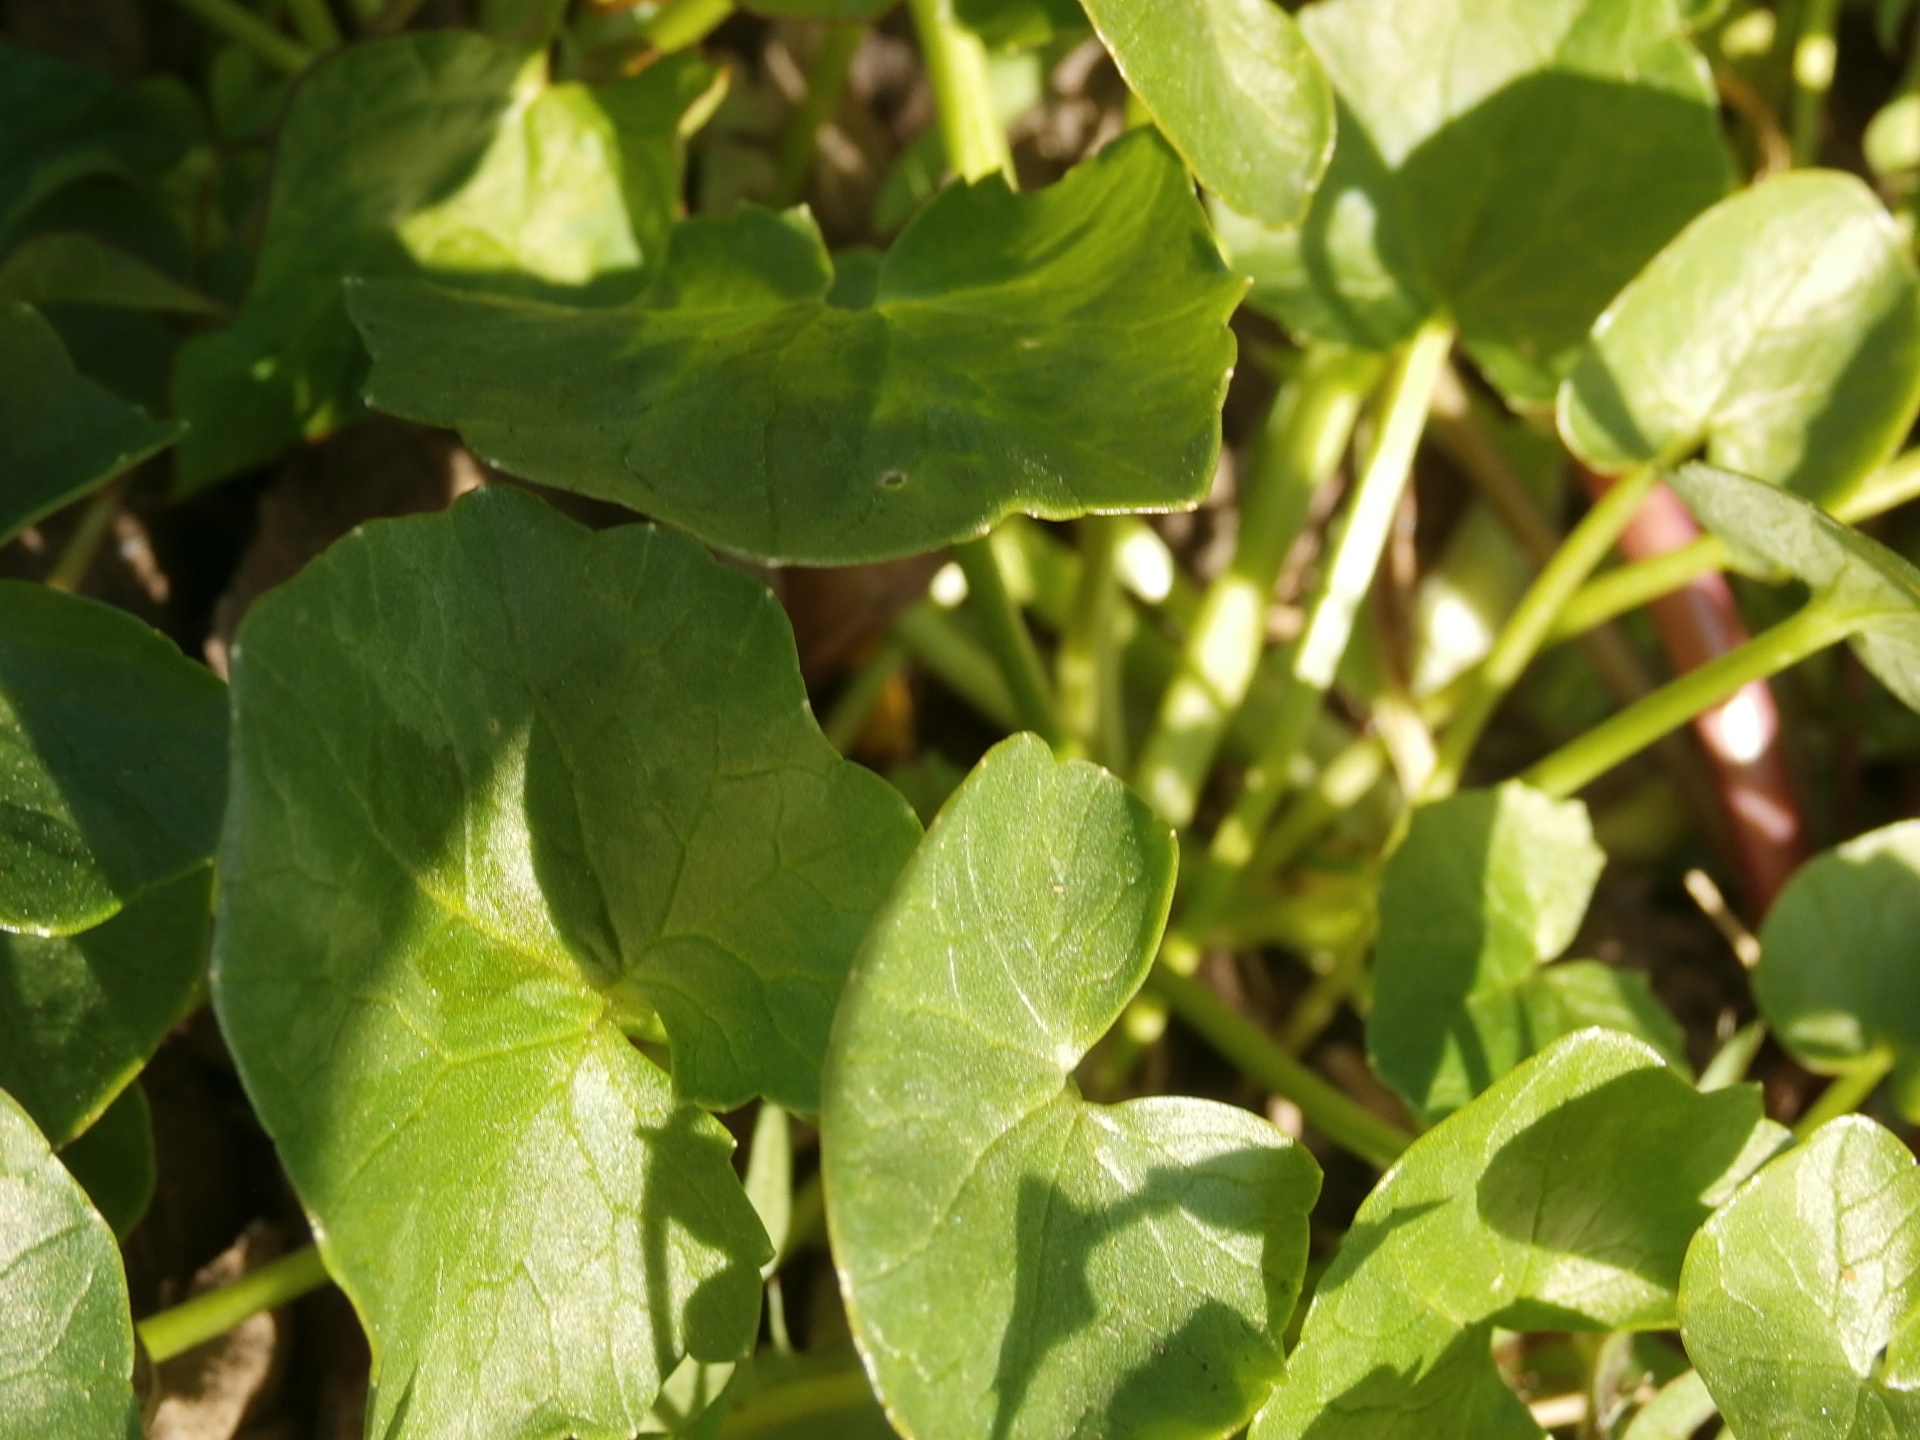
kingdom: Plantae
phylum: Tracheophyta
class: Magnoliopsida
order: Ranunculales
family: Ranunculaceae
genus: Ficaria
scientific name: Ficaria verna
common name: Lesser celandine
